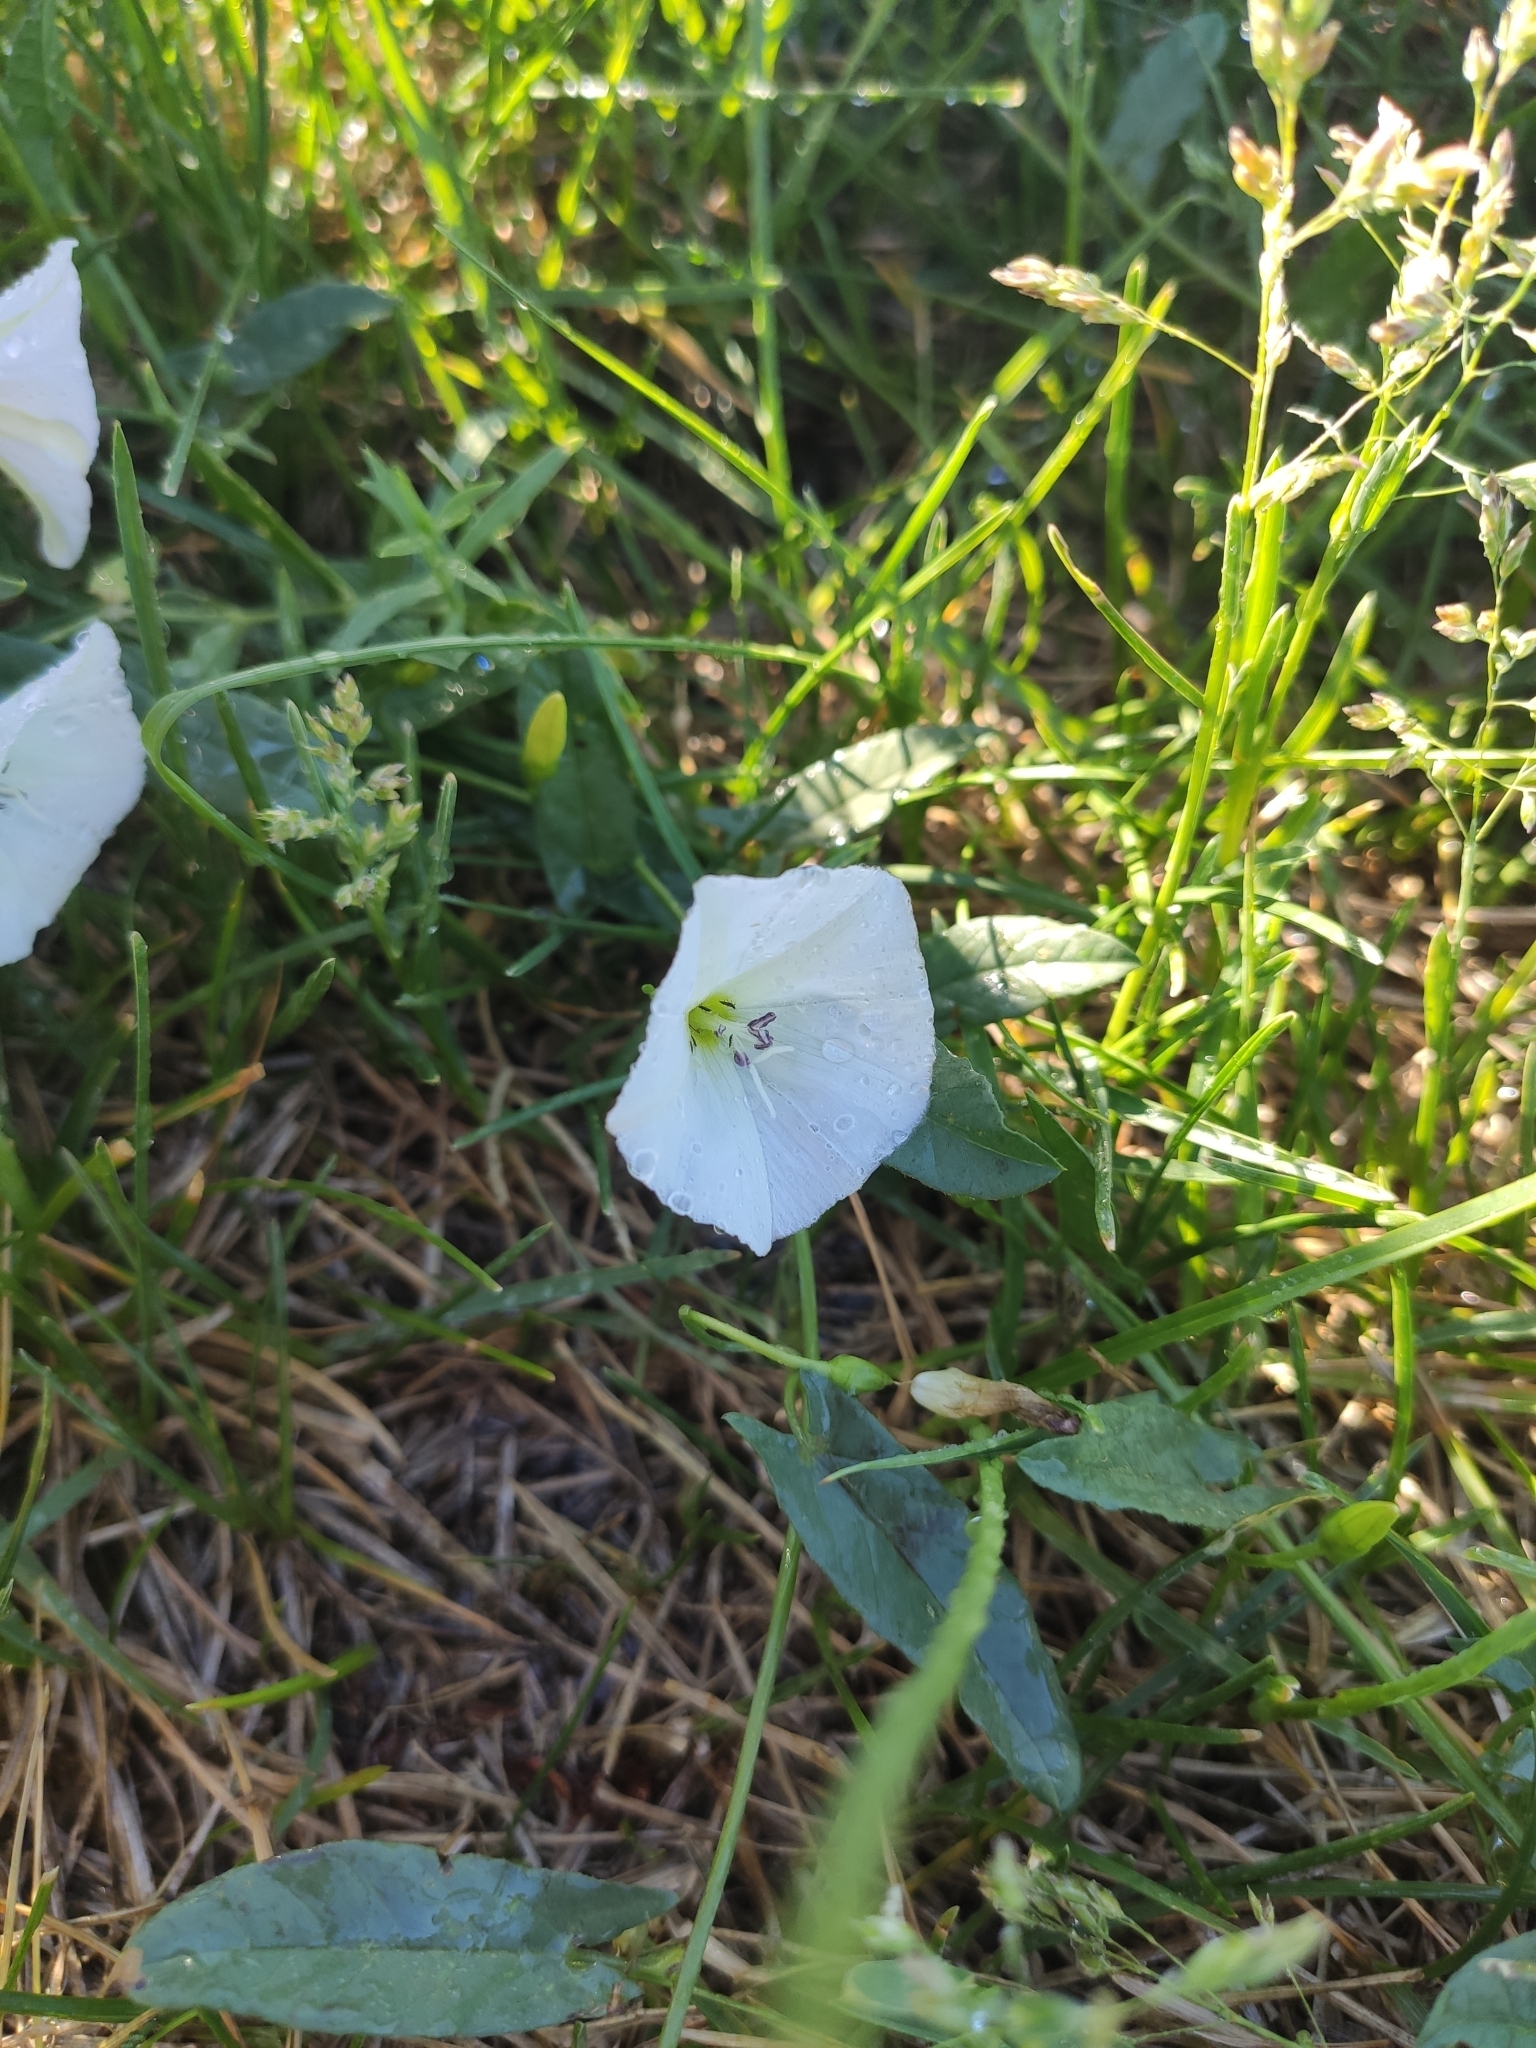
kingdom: Plantae
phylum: Tracheophyta
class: Magnoliopsida
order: Solanales
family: Convolvulaceae
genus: Convolvulus
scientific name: Convolvulus arvensis
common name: Field bindweed
